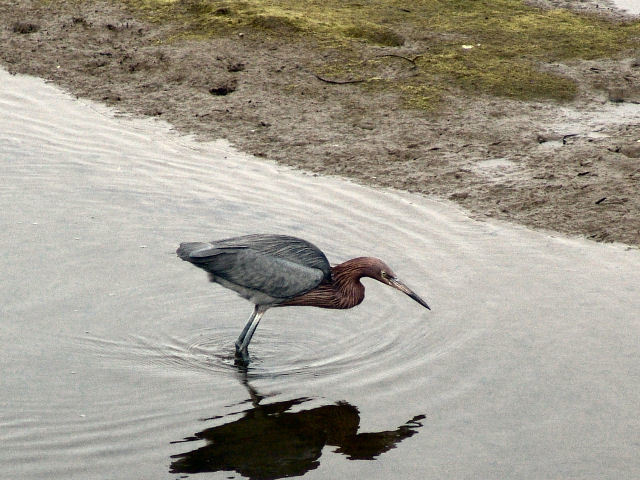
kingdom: Animalia
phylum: Chordata
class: Aves
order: Pelecaniformes
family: Ardeidae
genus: Egretta
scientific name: Egretta rufescens
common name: Reddish egret
